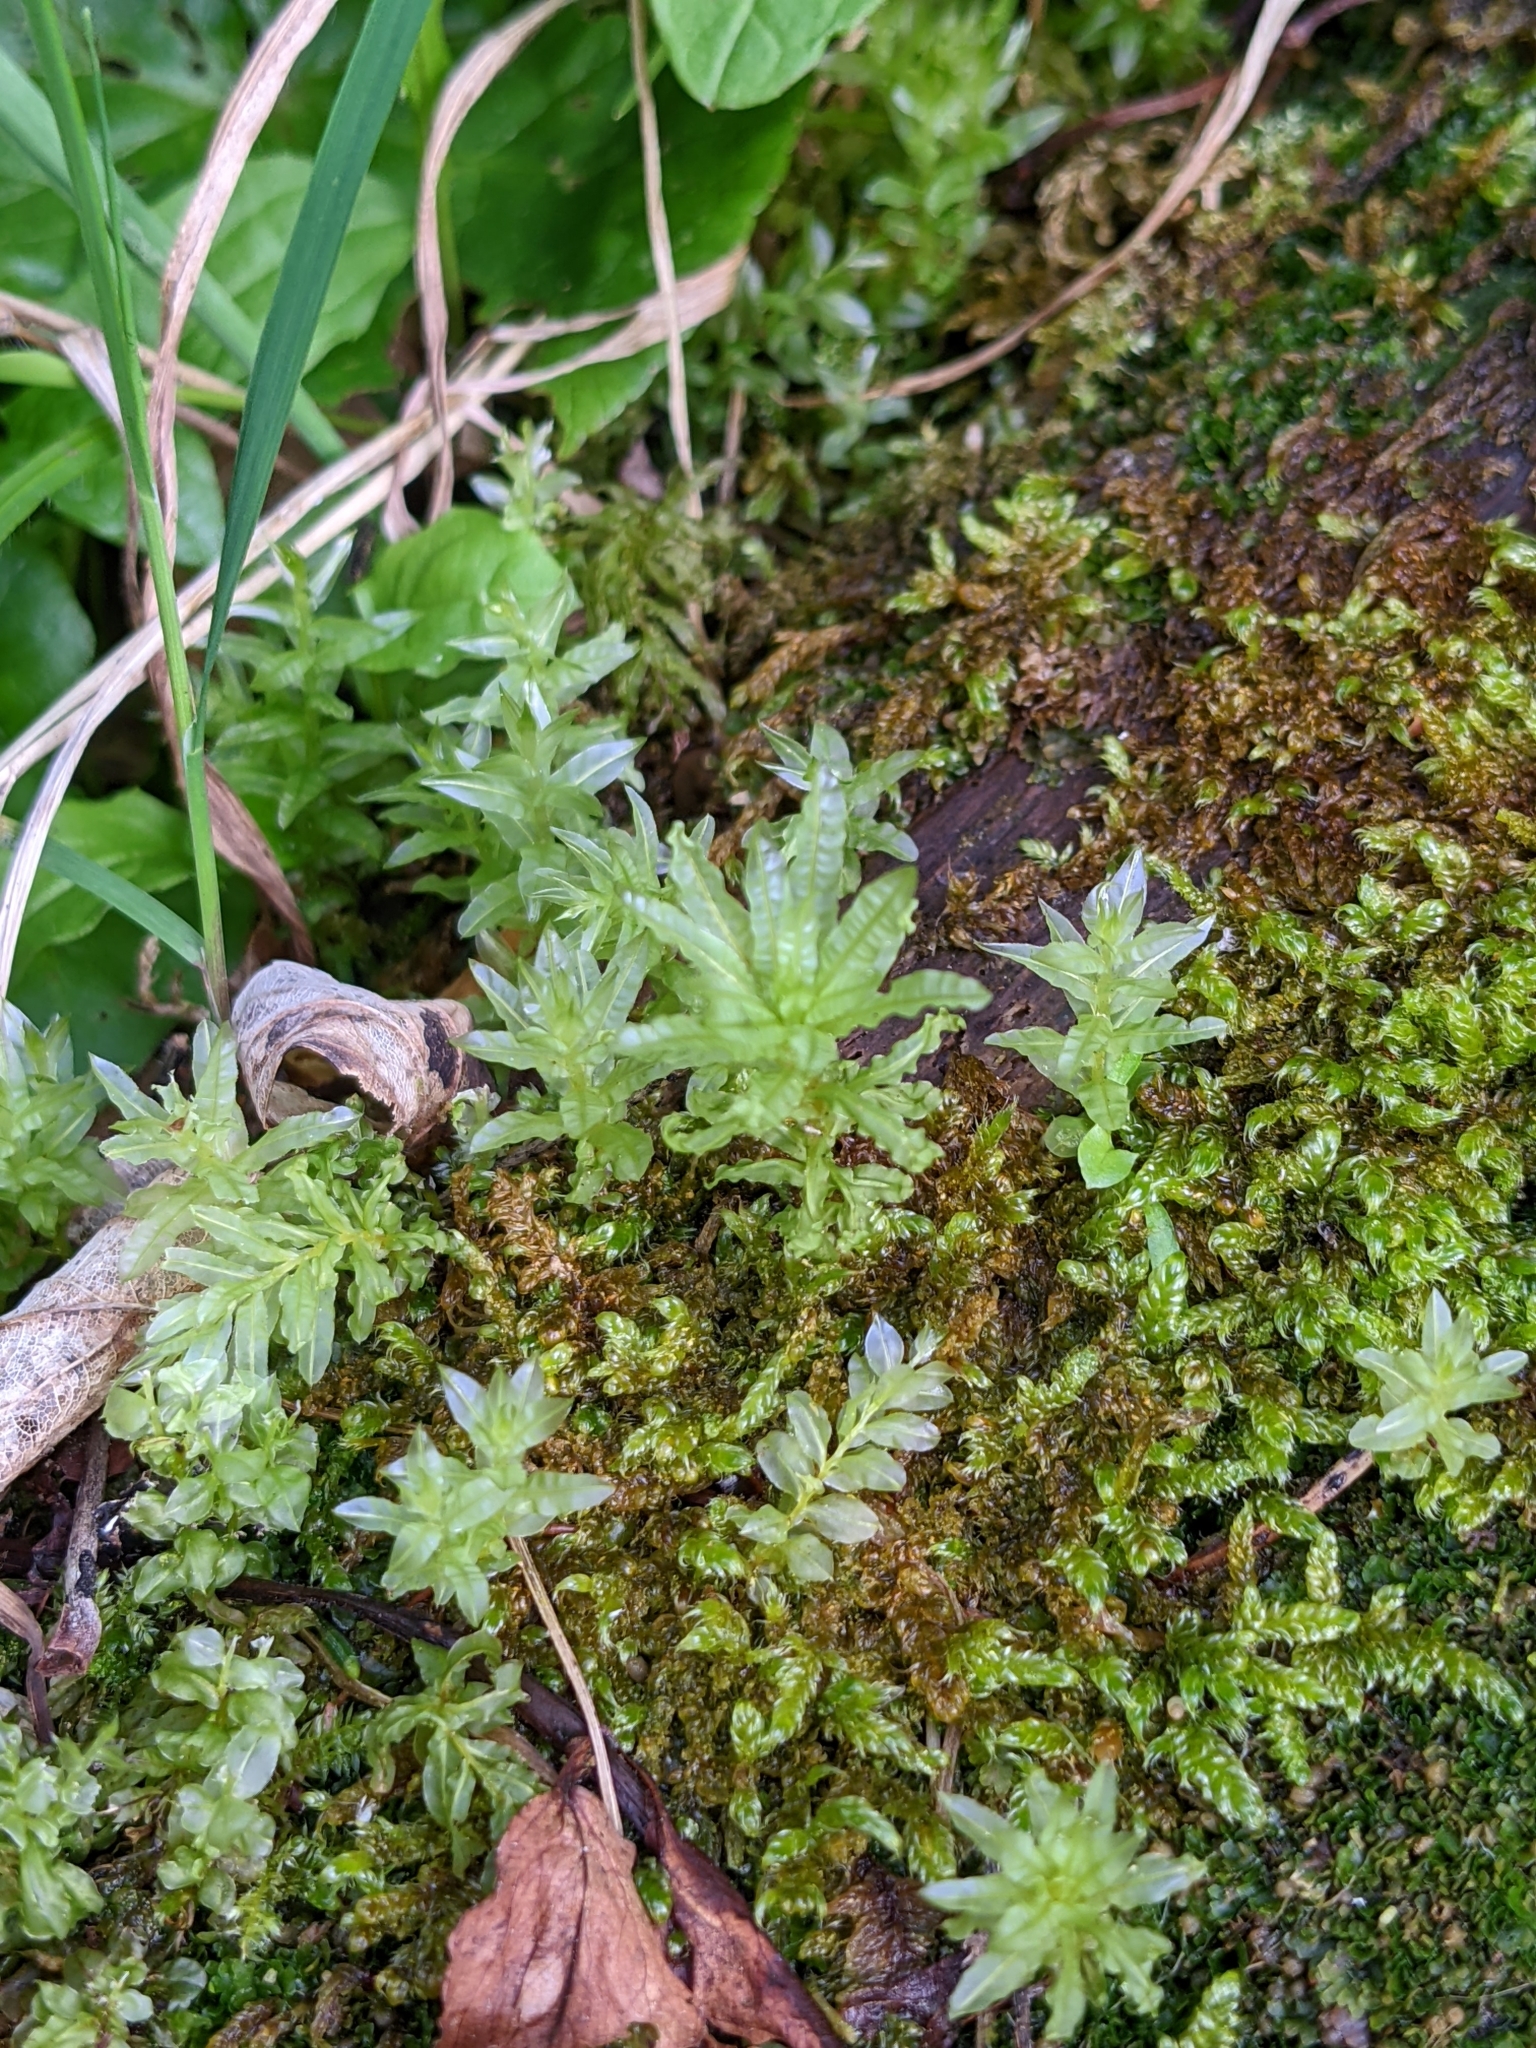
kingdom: Plantae
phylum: Bryophyta
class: Bryopsida
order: Bryales
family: Mniaceae
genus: Plagiomnium
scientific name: Plagiomnium undulatum
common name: Hart's-tongue thyme-moss
